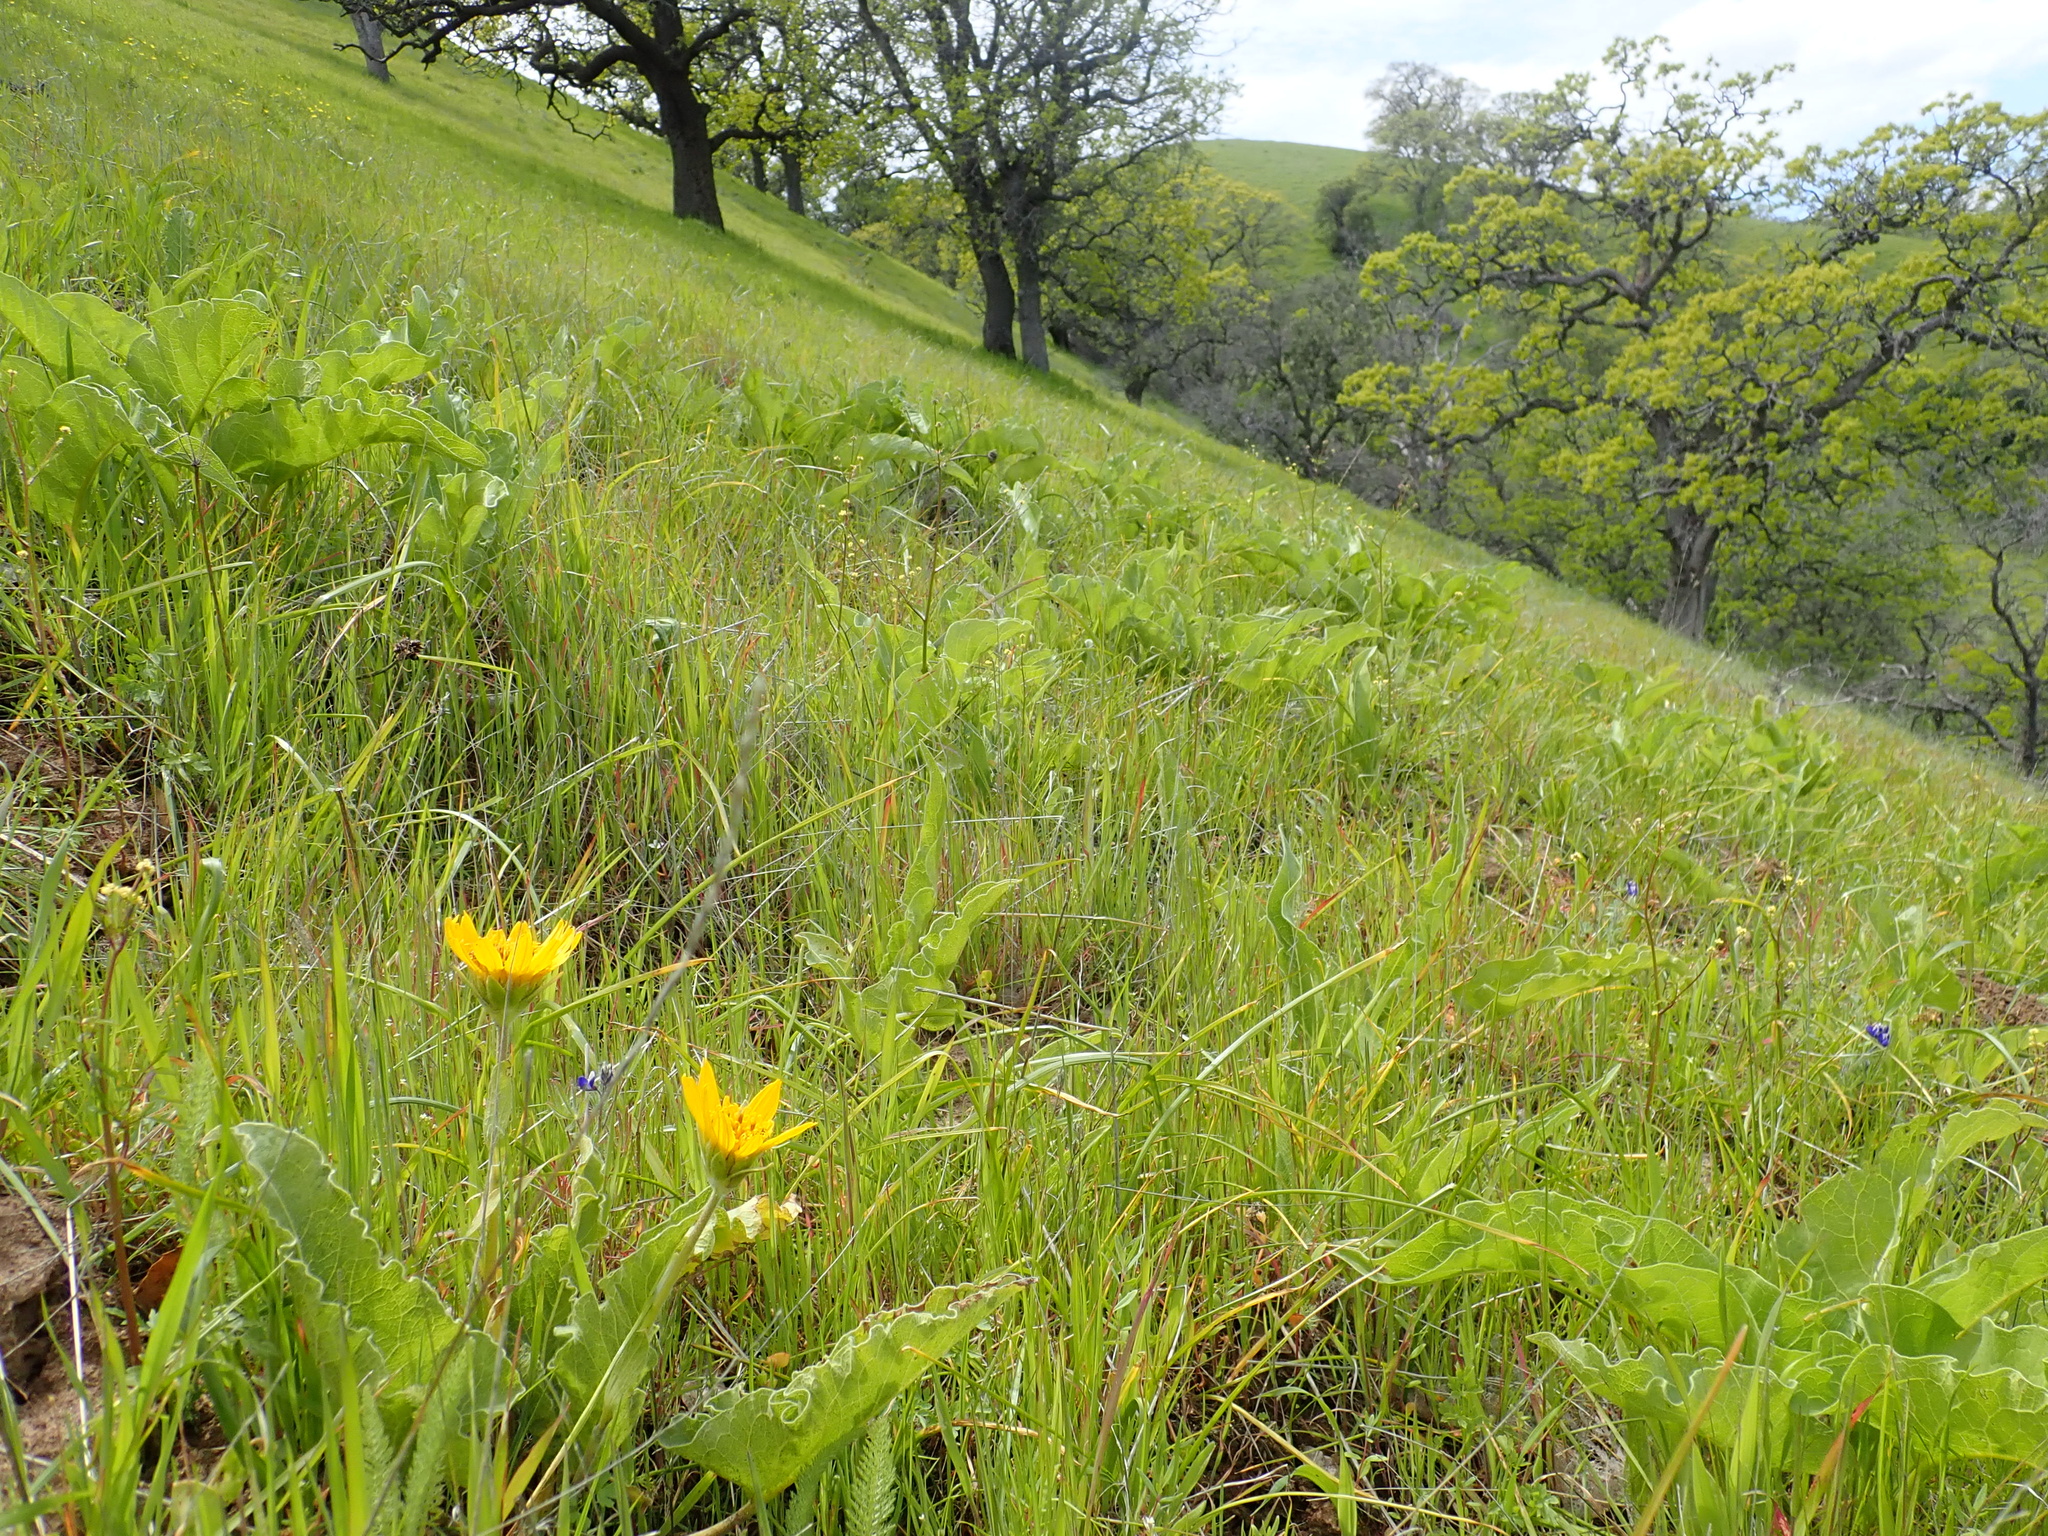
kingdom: Plantae
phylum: Tracheophyta
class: Magnoliopsida
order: Asterales
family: Asteraceae
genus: Balsamorhiza
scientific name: Balsamorhiza deltoidea
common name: Deltoid balsamroot
